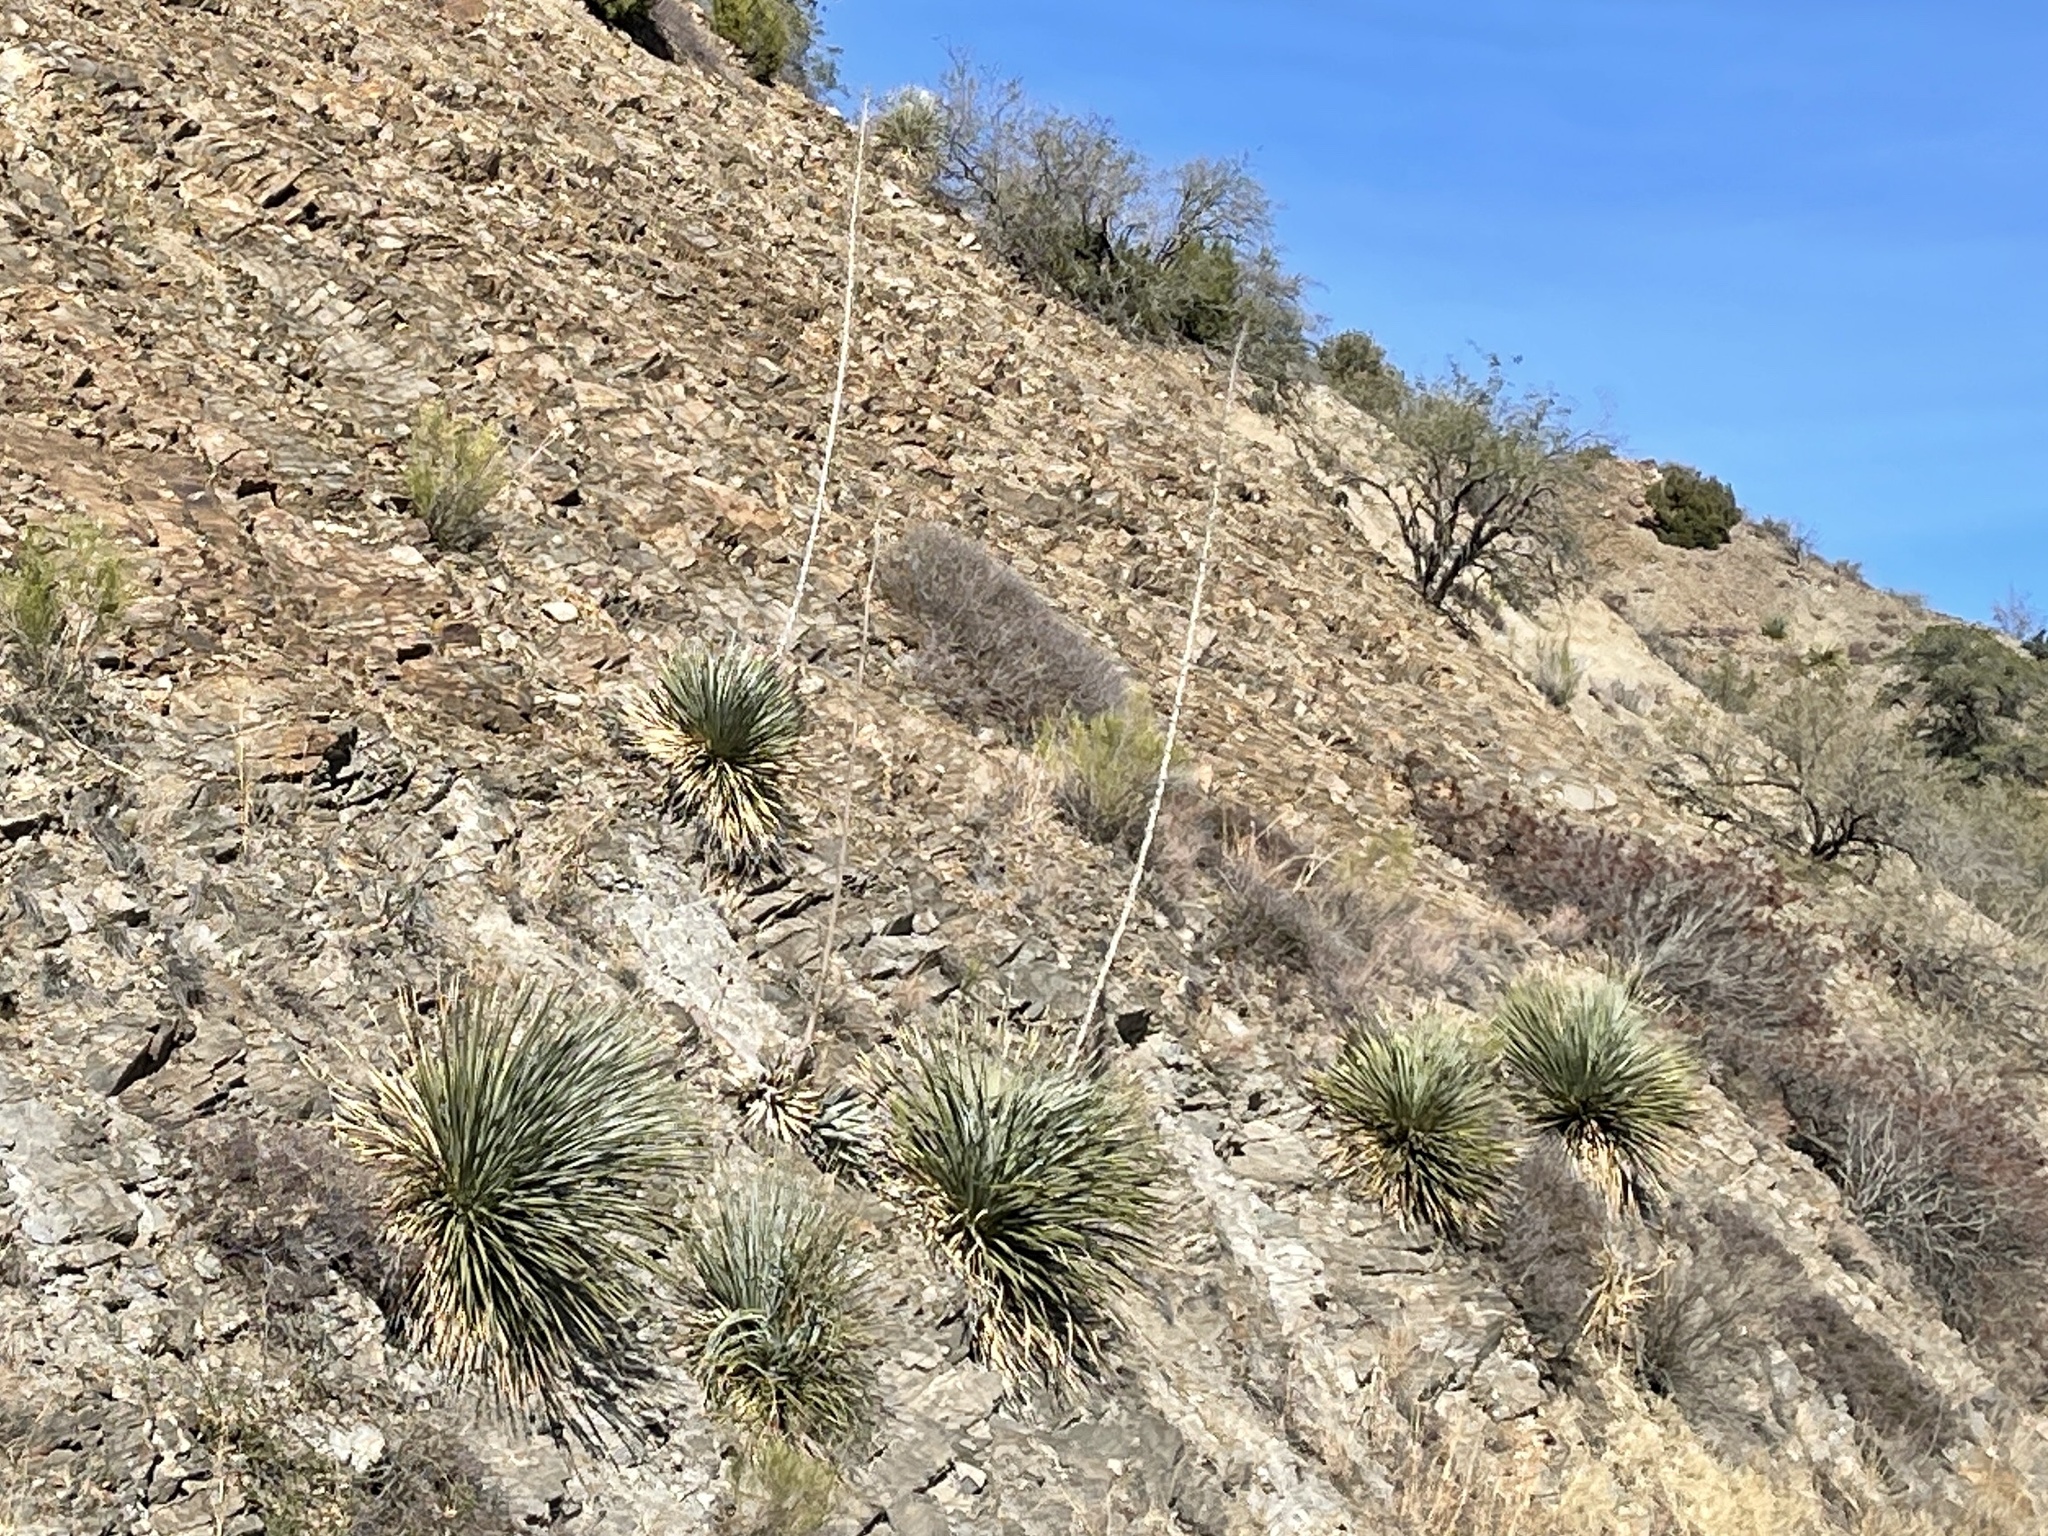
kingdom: Plantae
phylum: Tracheophyta
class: Liliopsida
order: Asparagales
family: Asparagaceae
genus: Dasylirion
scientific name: Dasylirion wheeleri
